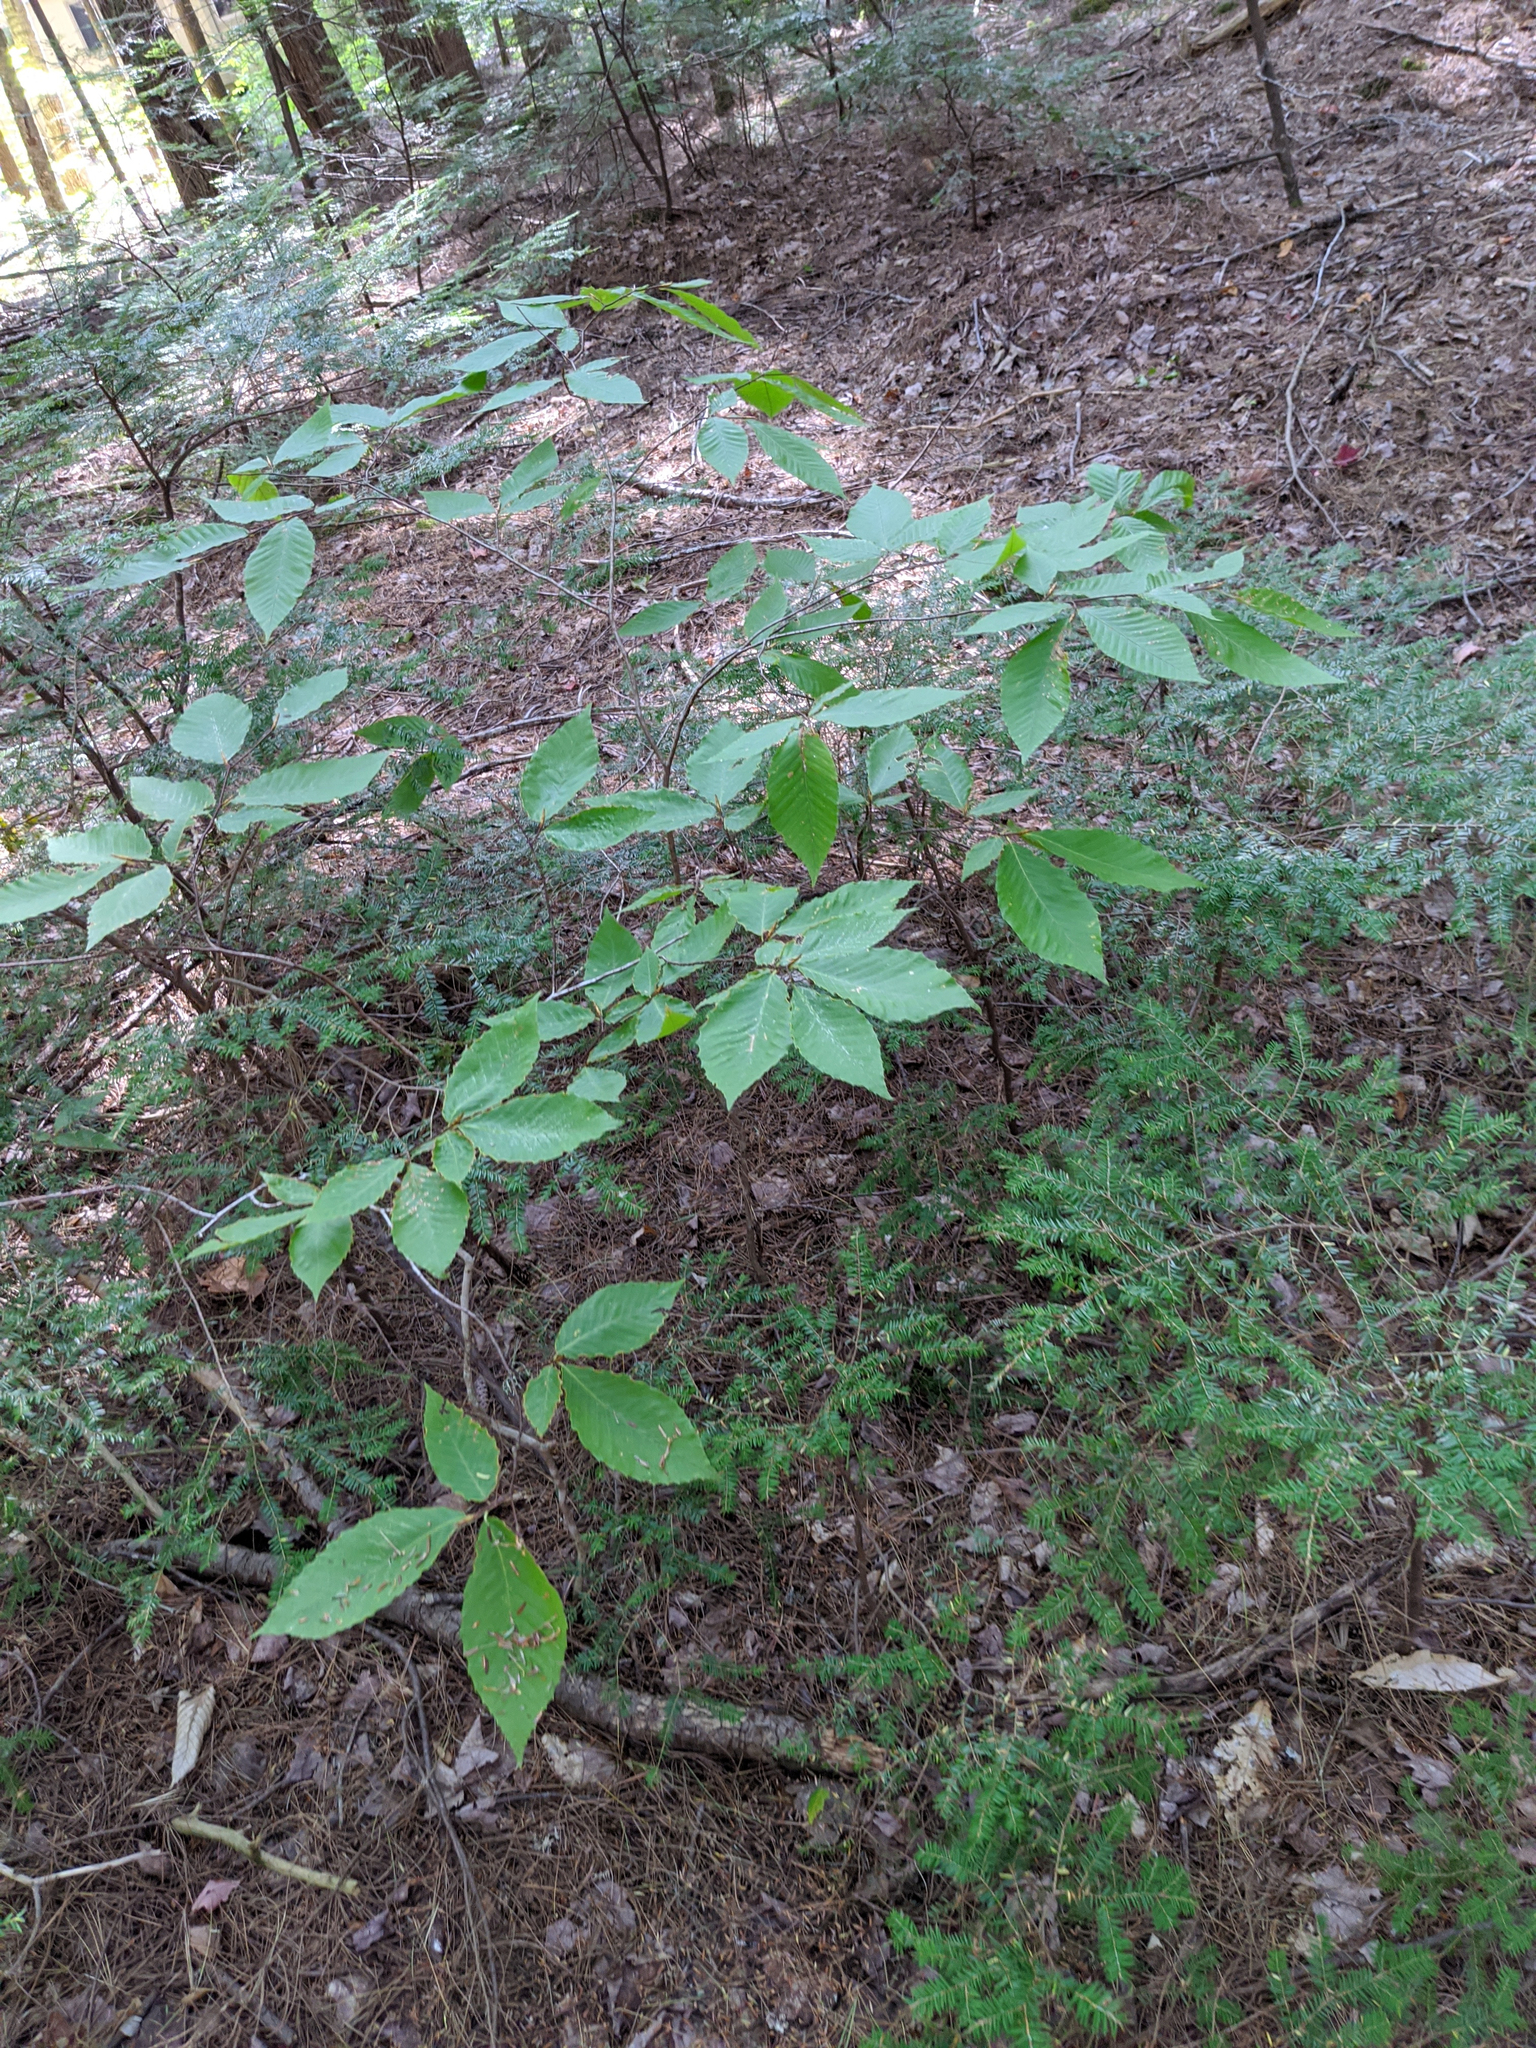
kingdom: Plantae
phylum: Tracheophyta
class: Magnoliopsida
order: Fagales
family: Fagaceae
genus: Fagus
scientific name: Fagus grandifolia
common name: American beech
